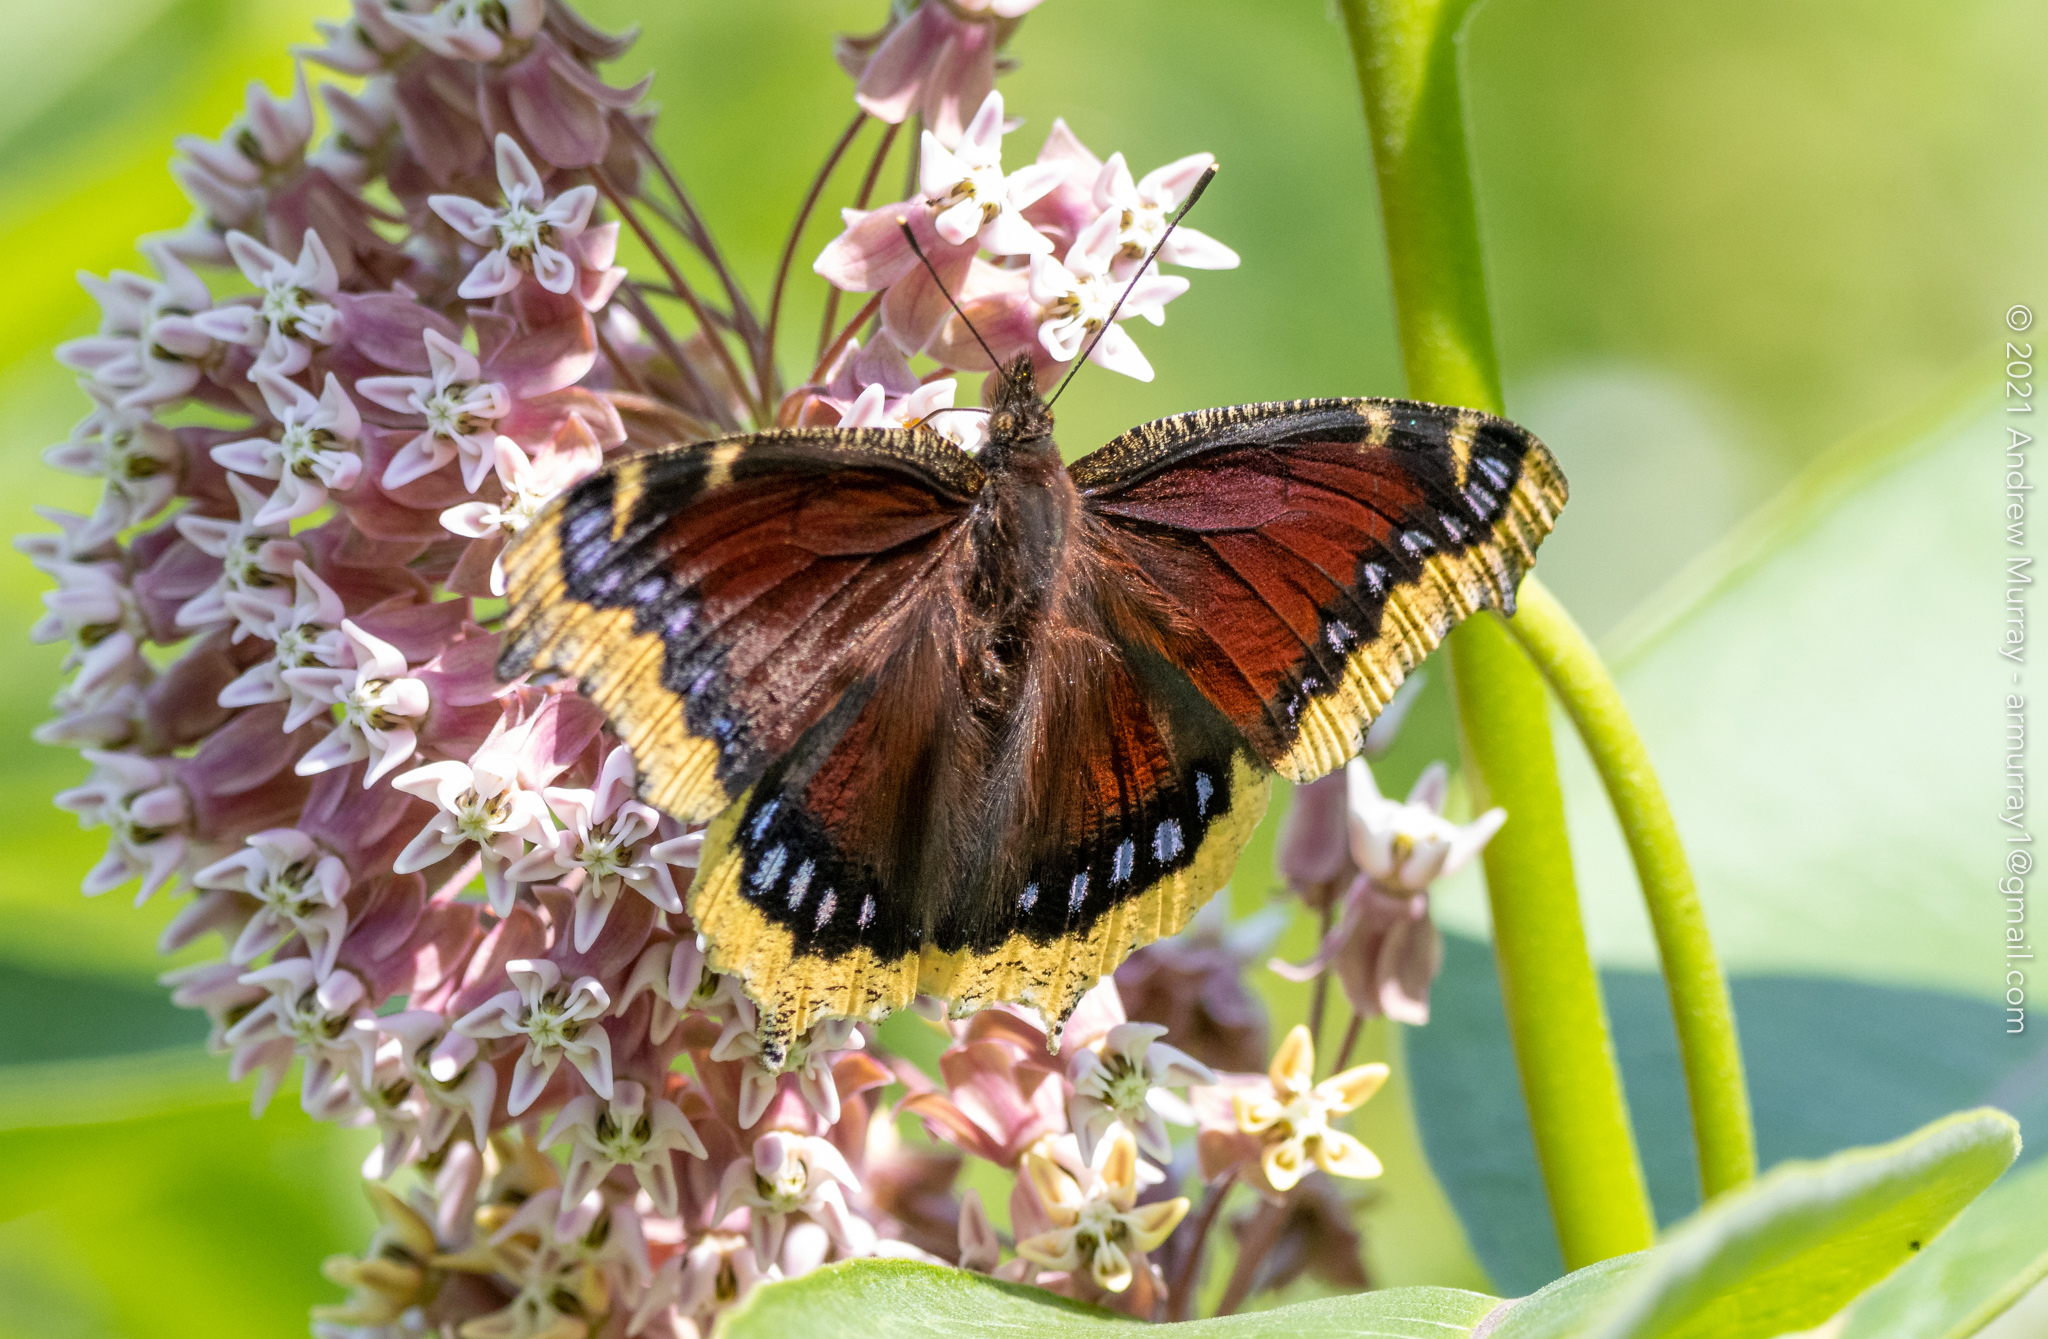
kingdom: Animalia
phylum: Arthropoda
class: Insecta
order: Lepidoptera
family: Nymphalidae
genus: Nymphalis
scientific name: Nymphalis antiopa
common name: Camberwell beauty
